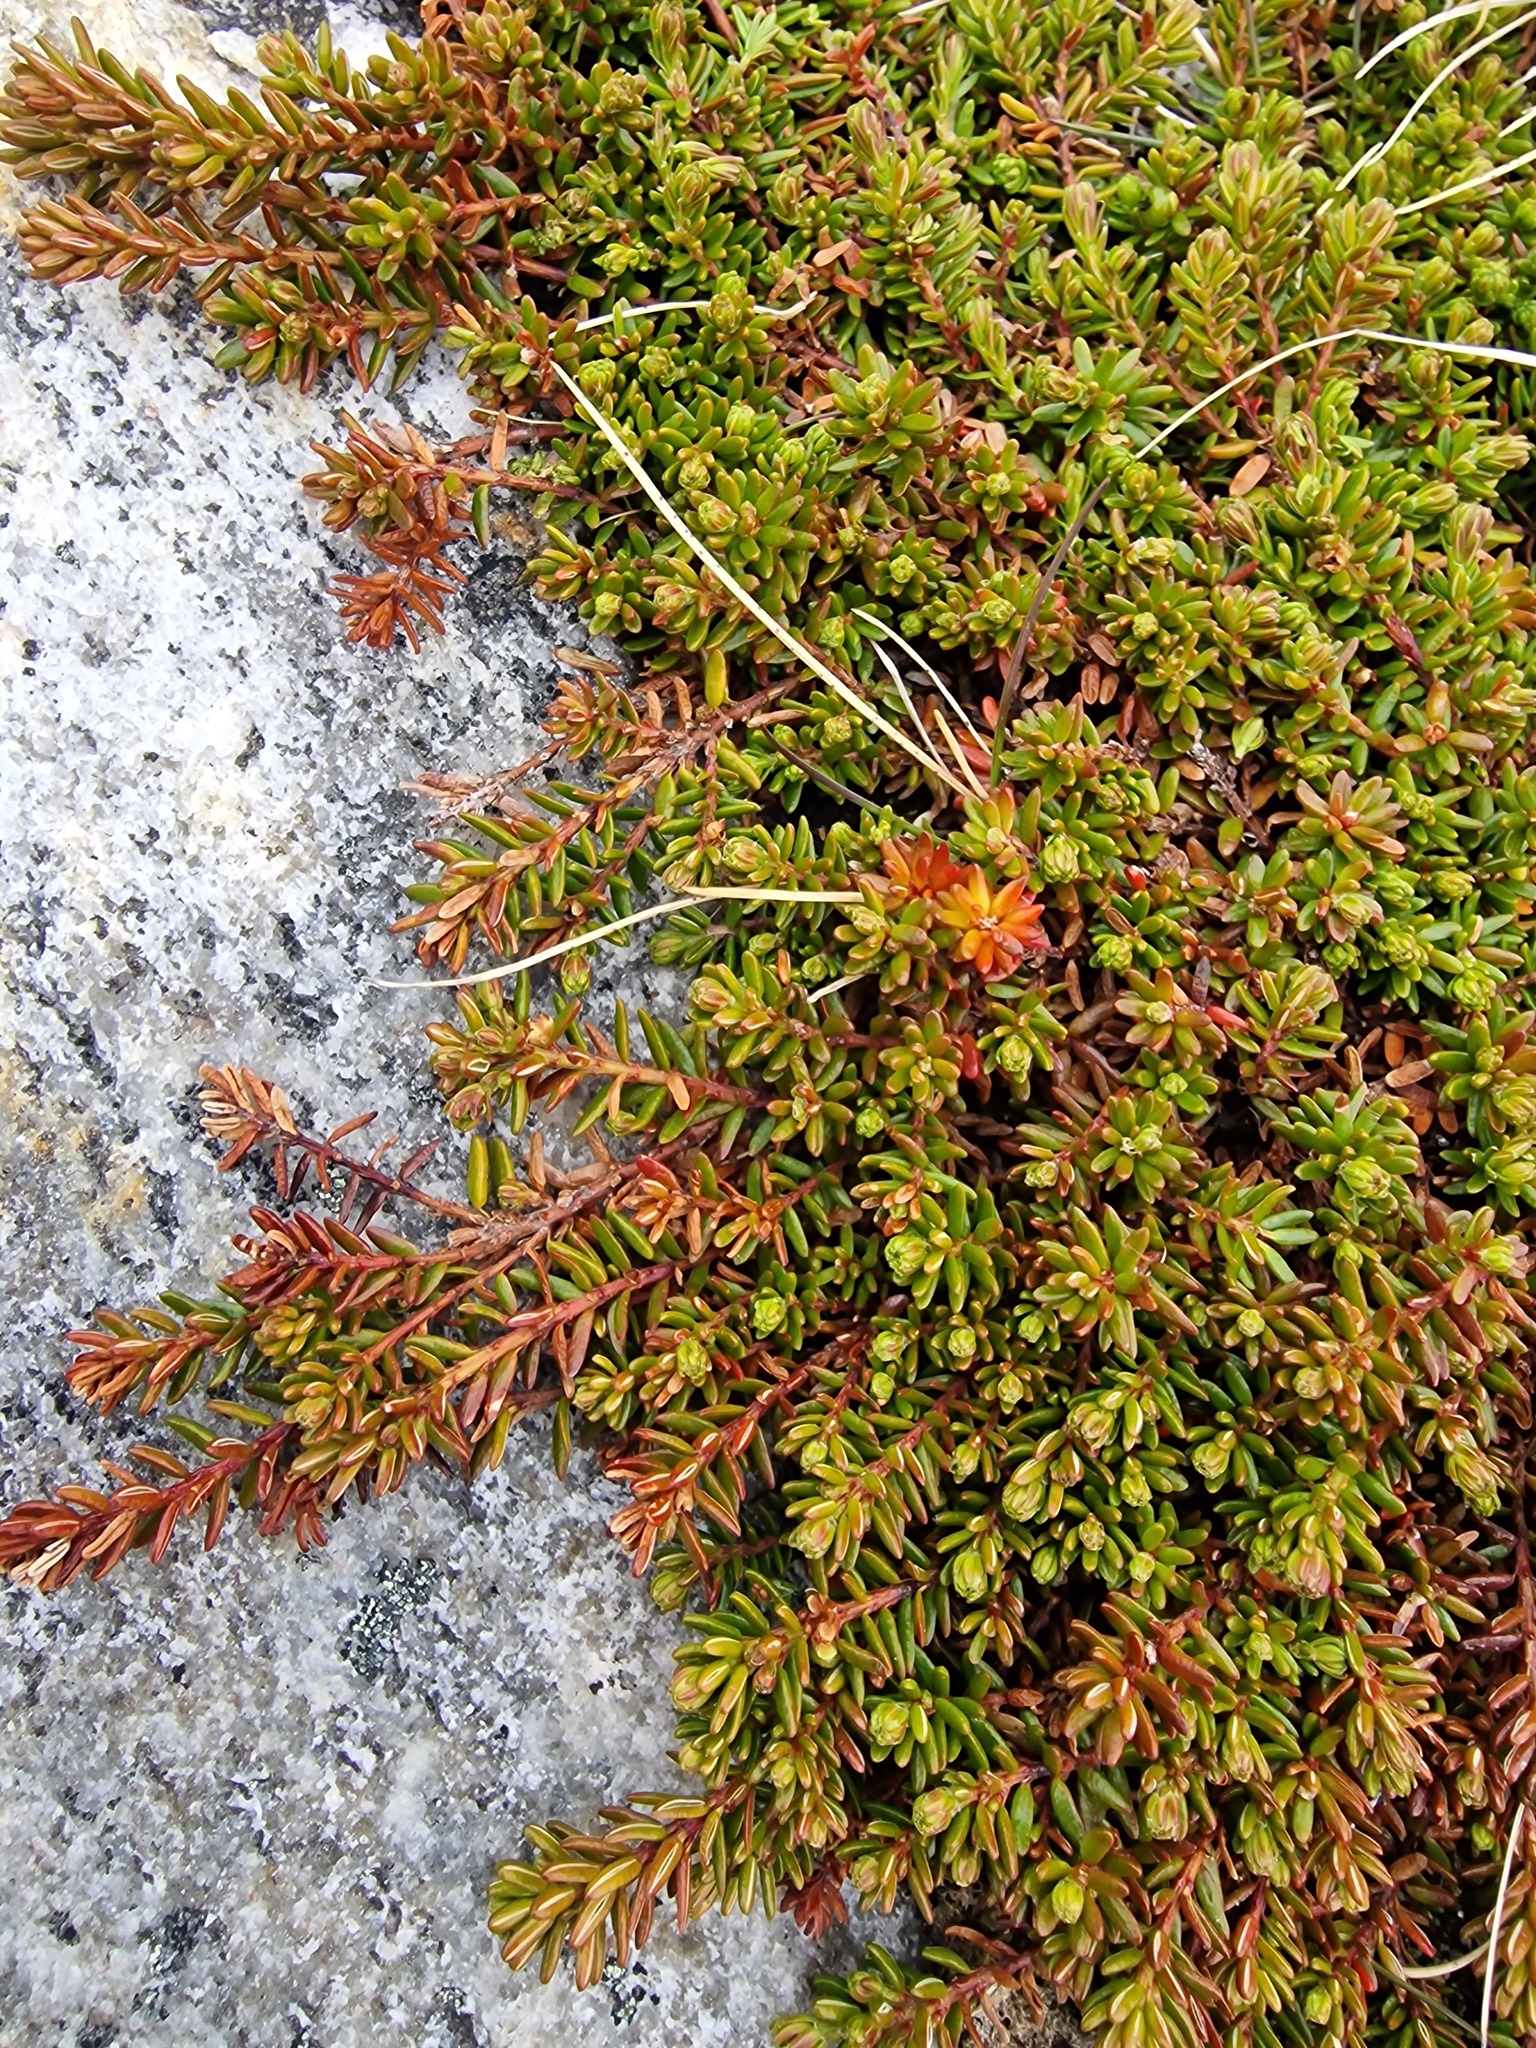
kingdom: Plantae
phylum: Tracheophyta
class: Magnoliopsida
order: Ericales
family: Ericaceae
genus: Empetrum
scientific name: Empetrum nigrum
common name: Black crowberry
